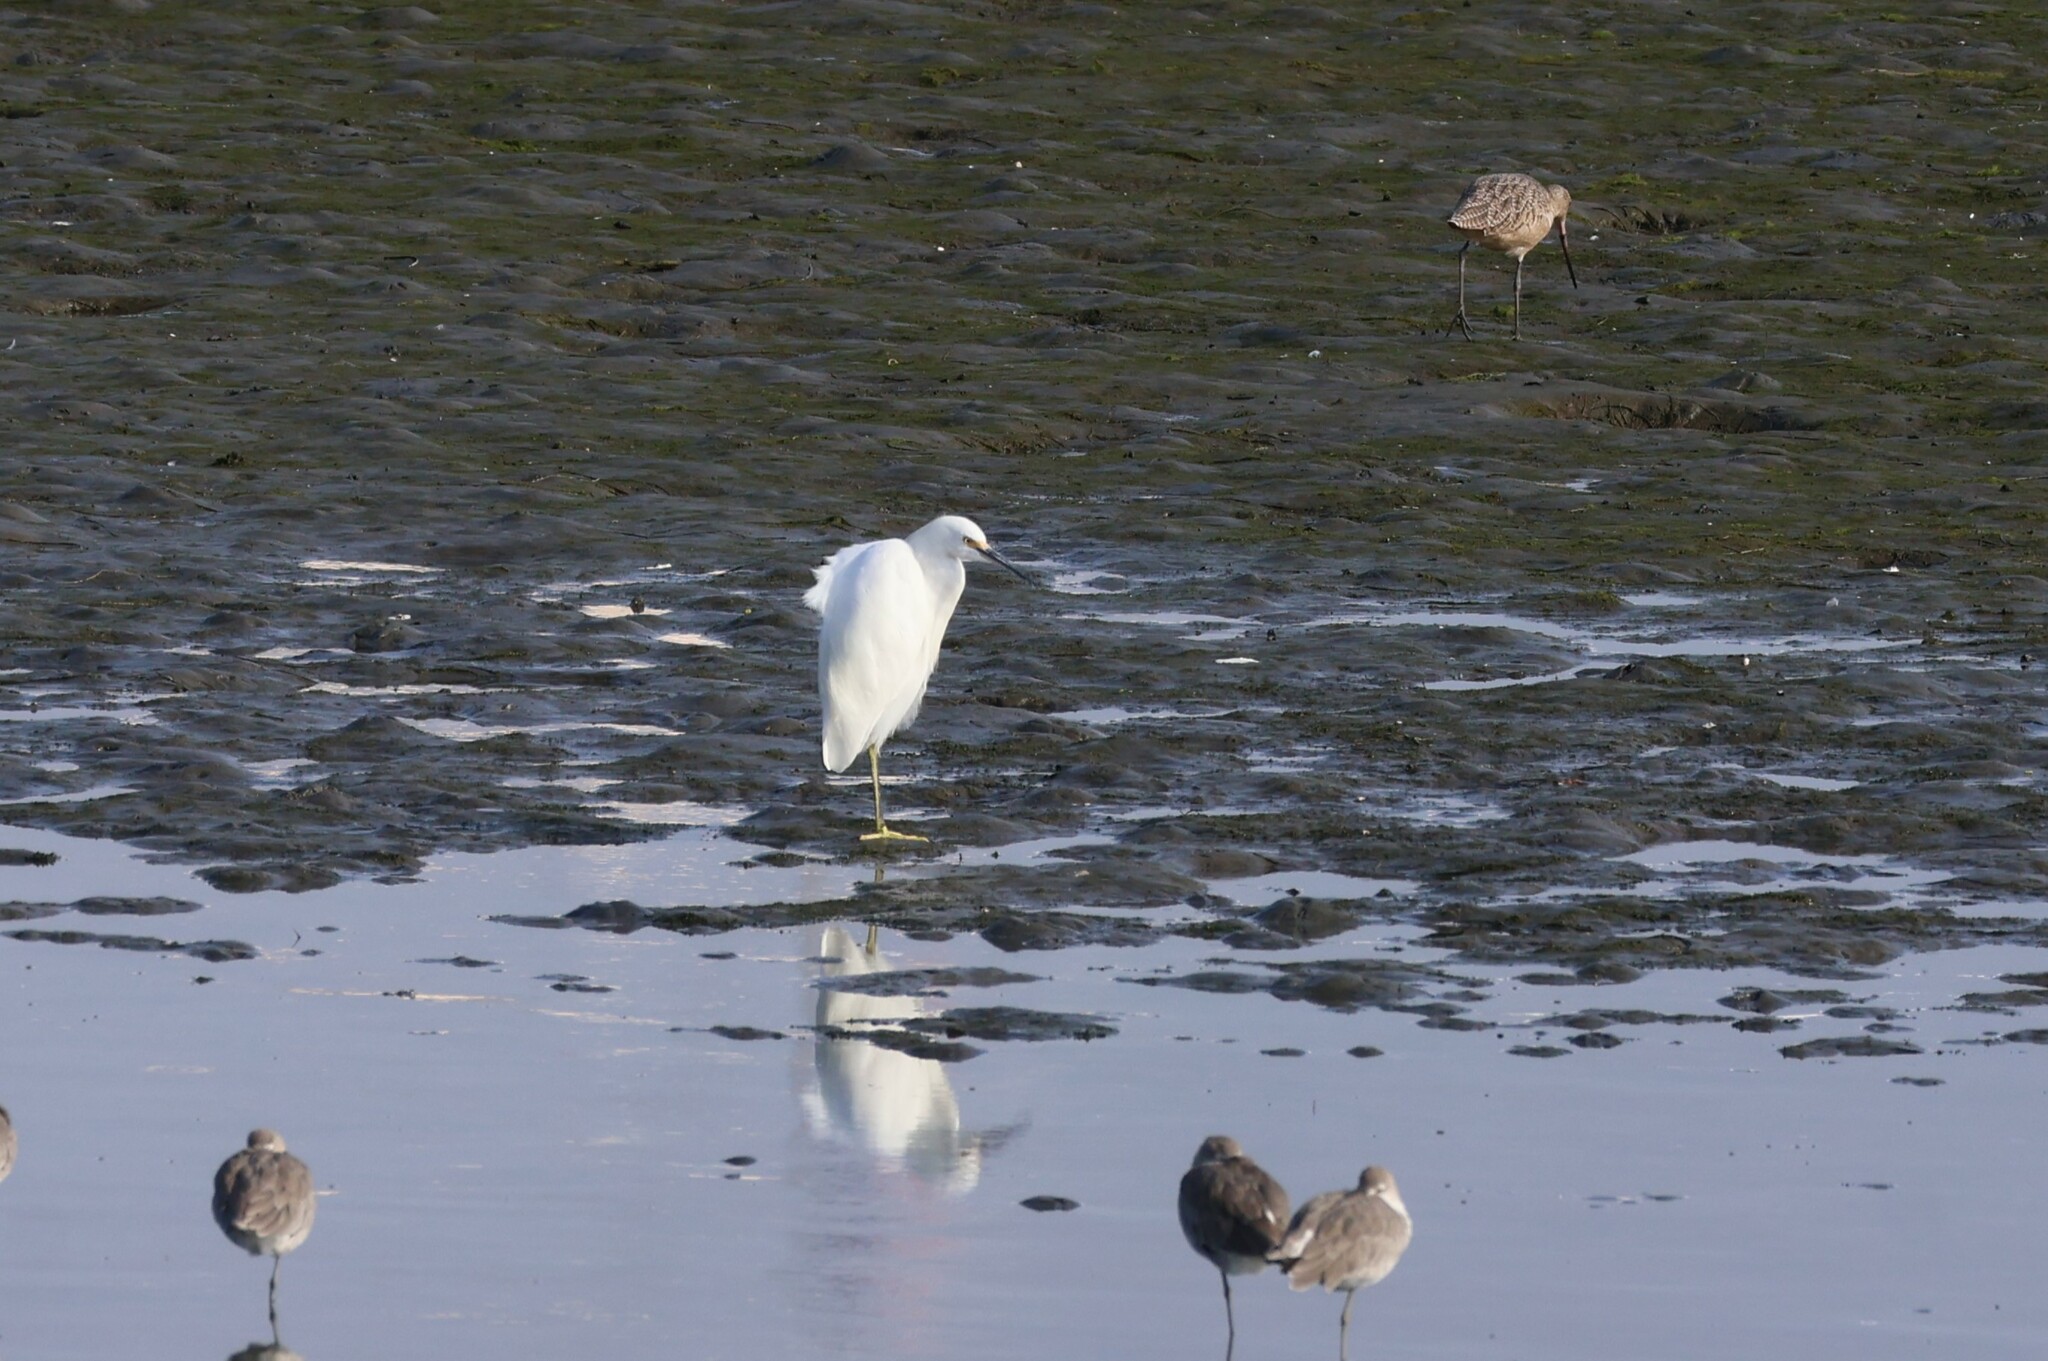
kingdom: Animalia
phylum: Chordata
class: Aves
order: Pelecaniformes
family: Ardeidae
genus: Egretta
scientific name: Egretta thula
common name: Snowy egret
